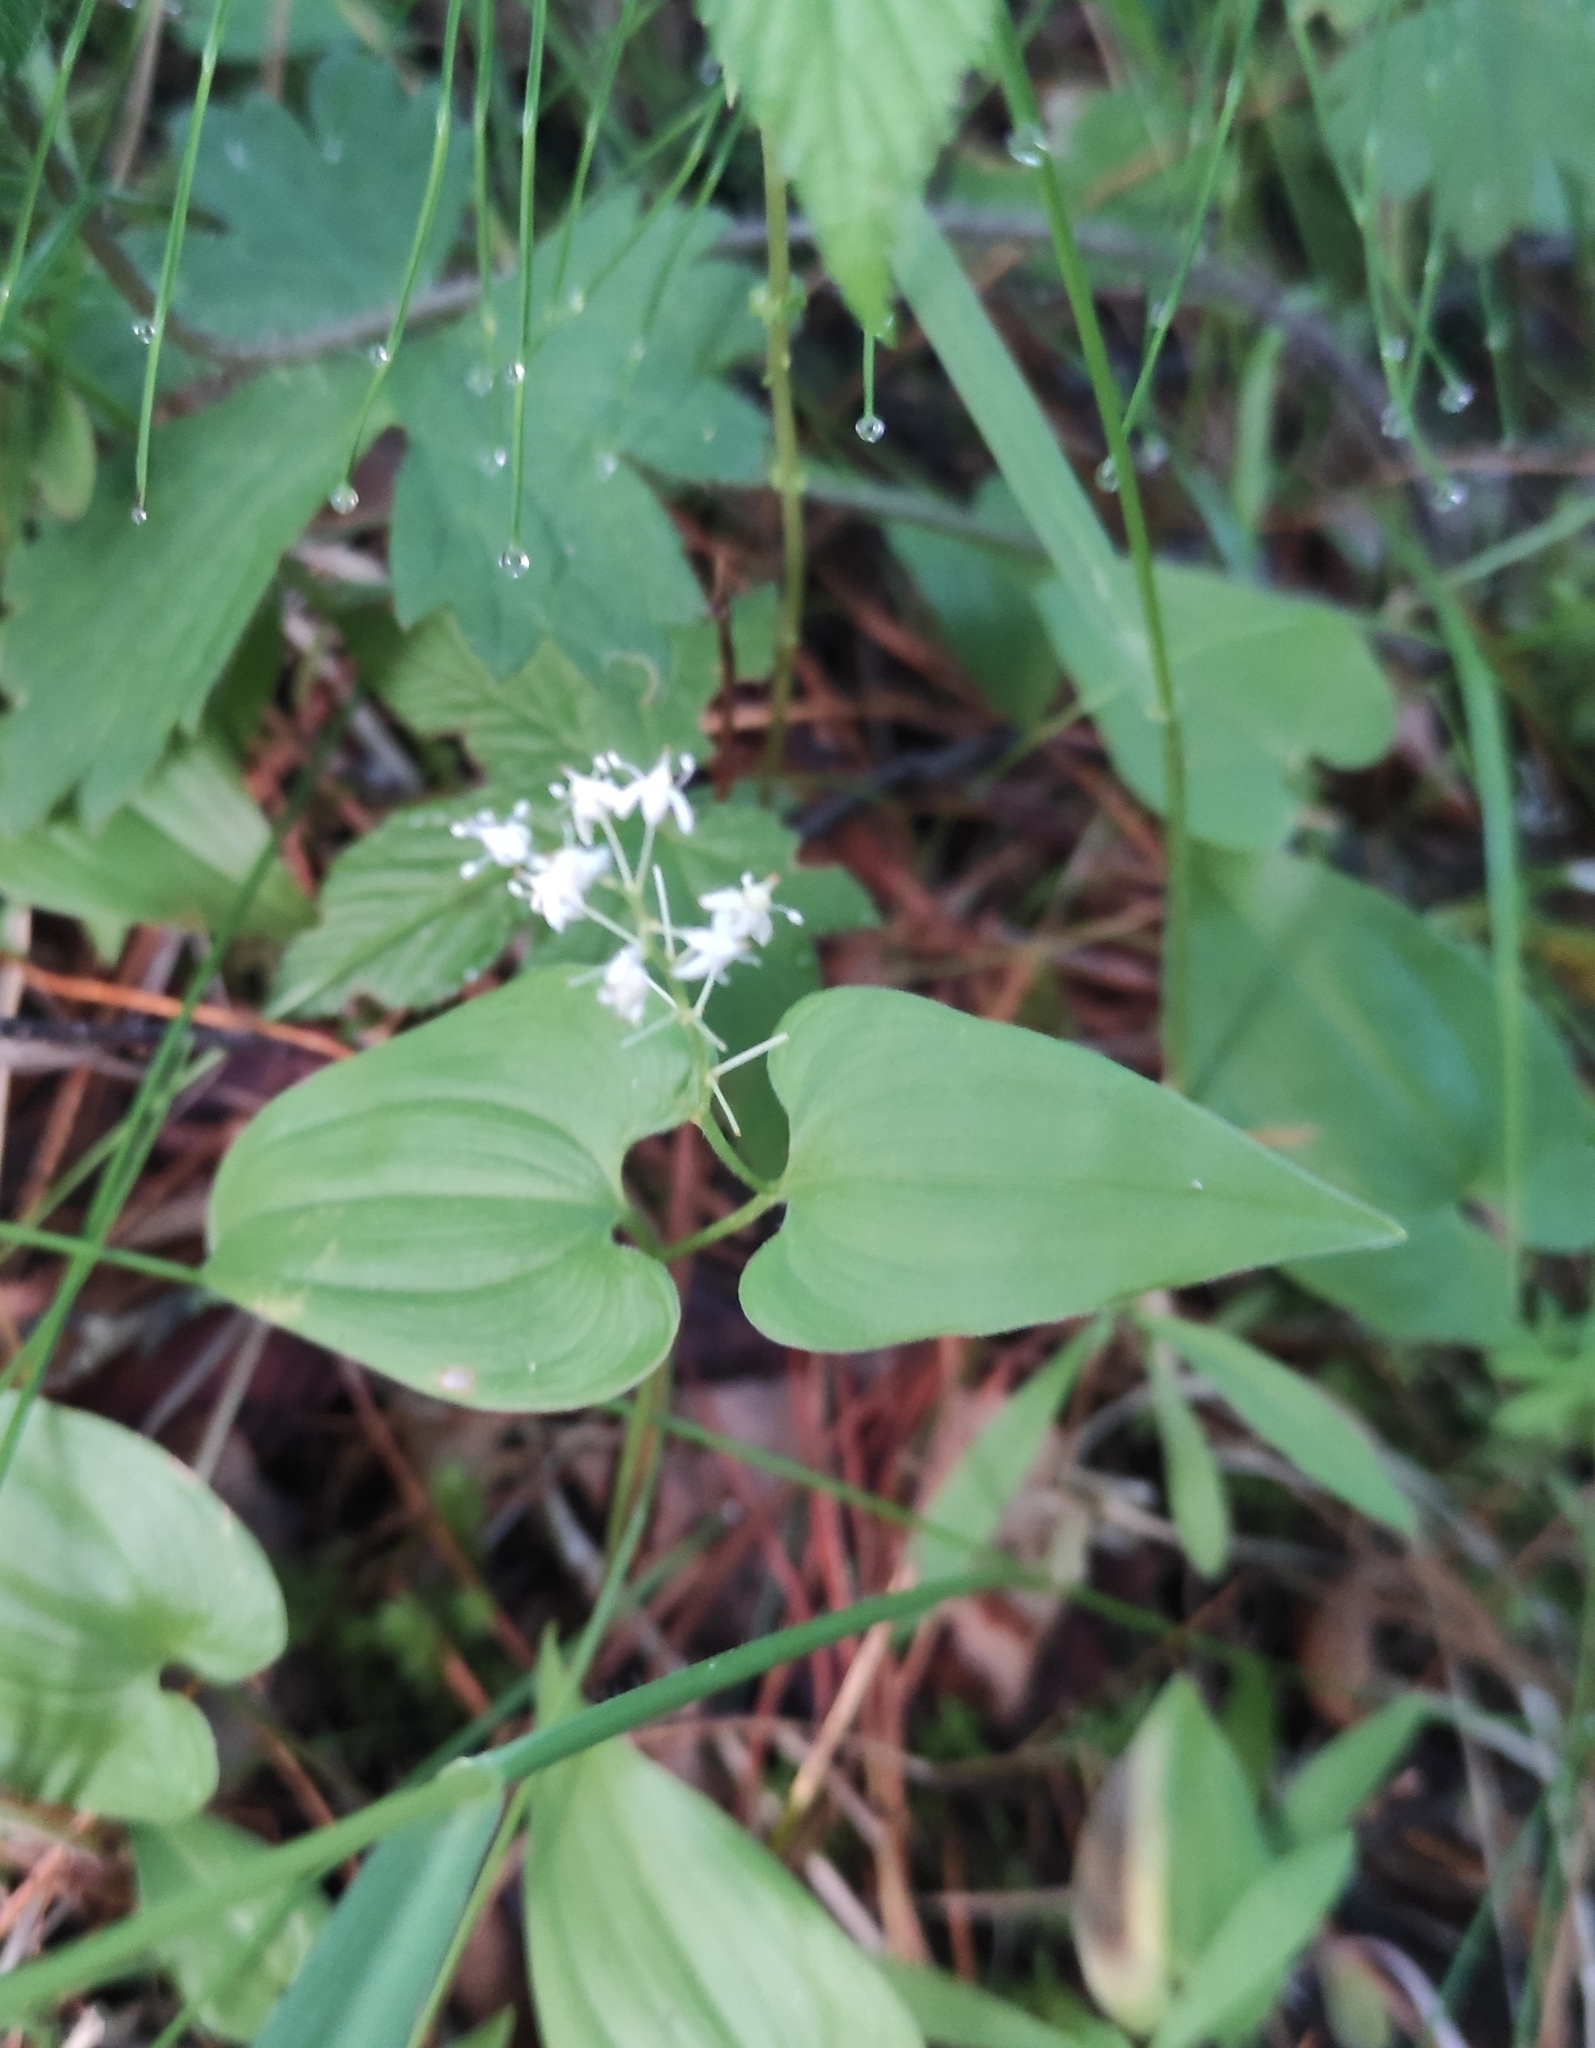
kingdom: Plantae
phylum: Tracheophyta
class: Liliopsida
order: Asparagales
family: Asparagaceae
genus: Maianthemum
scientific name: Maianthemum bifolium
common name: May lily
